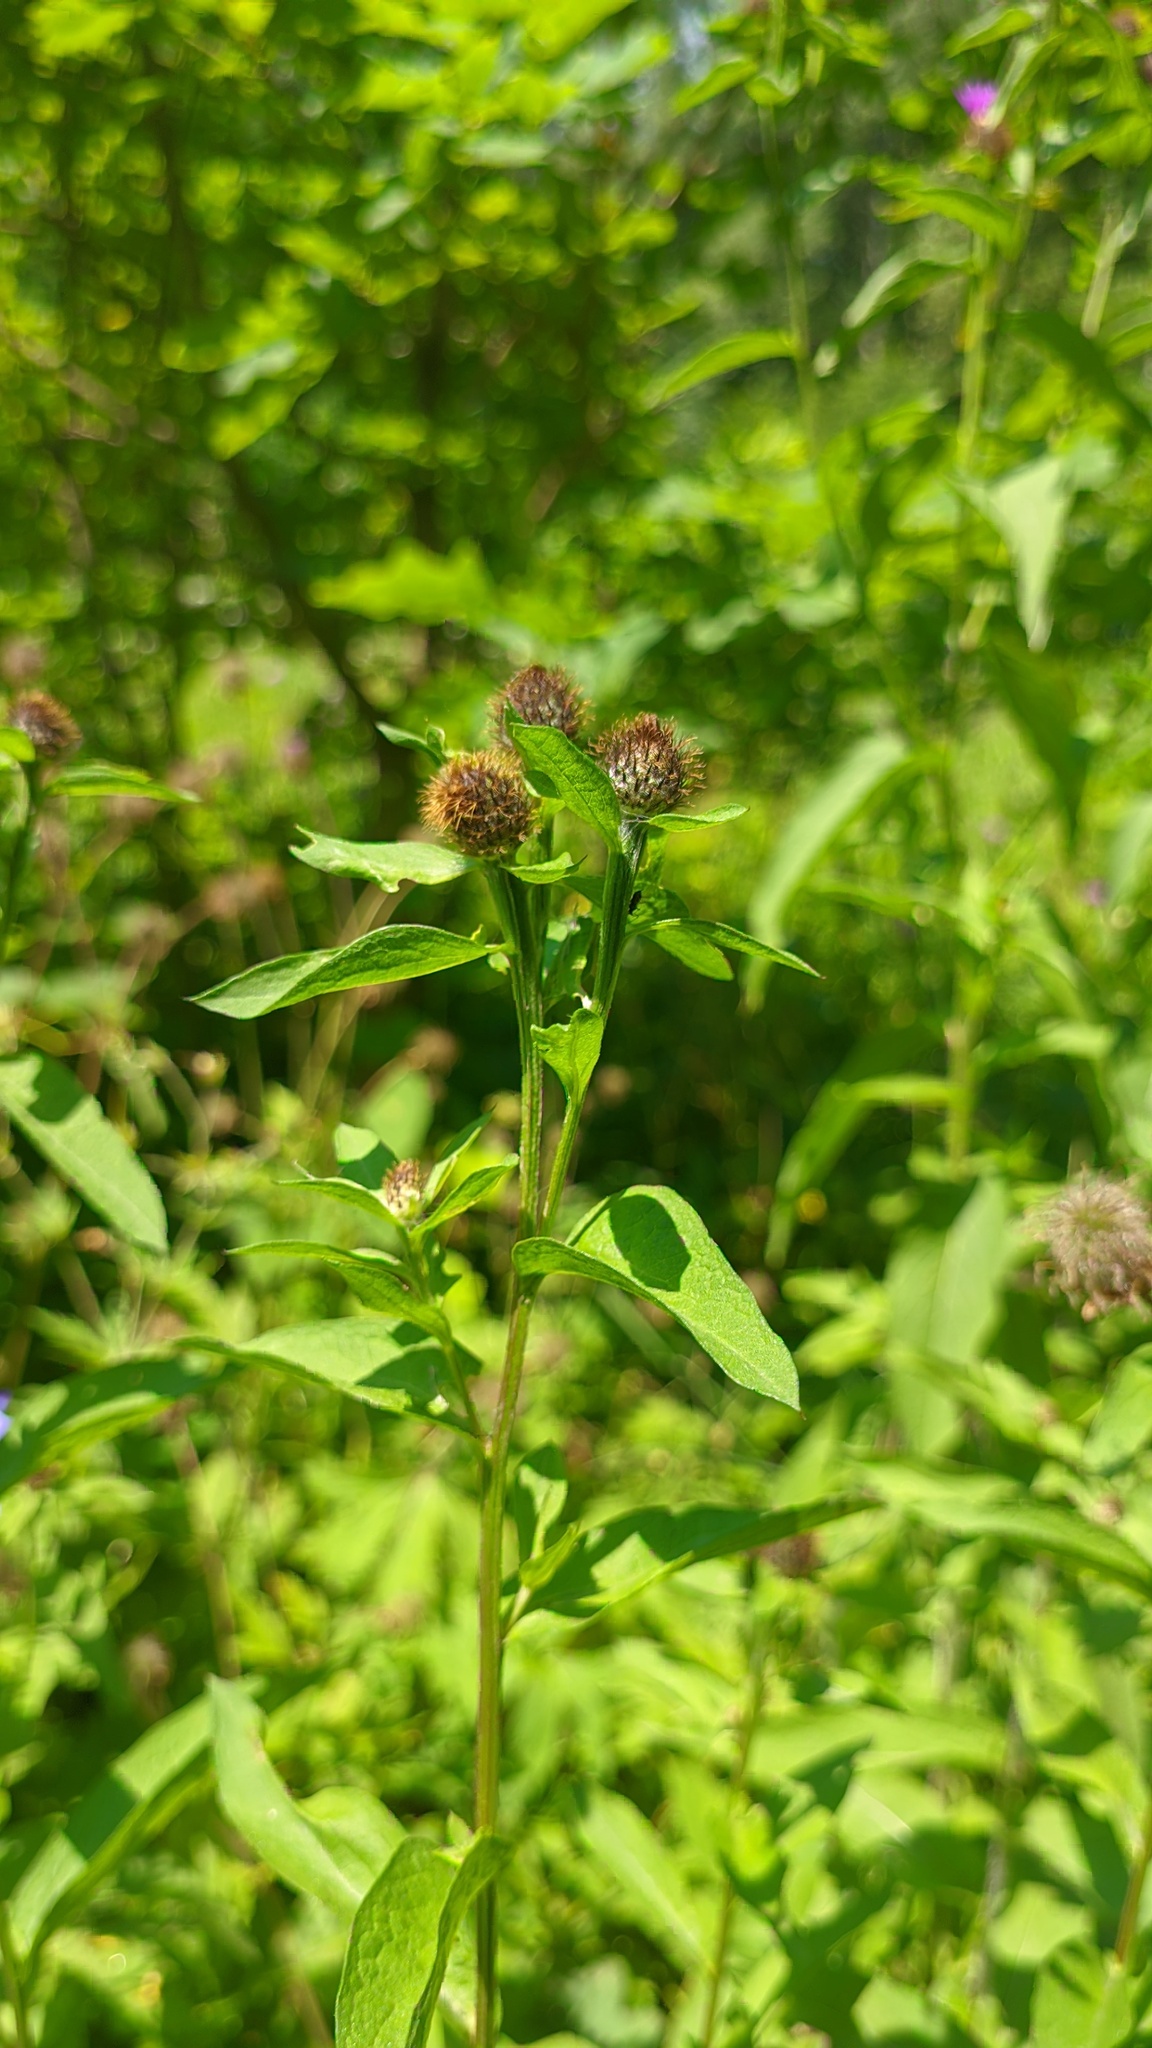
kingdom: Plantae
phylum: Tracheophyta
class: Magnoliopsida
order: Asterales
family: Asteraceae
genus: Centaurea
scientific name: Centaurea phrygia
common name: Wig knapweed
